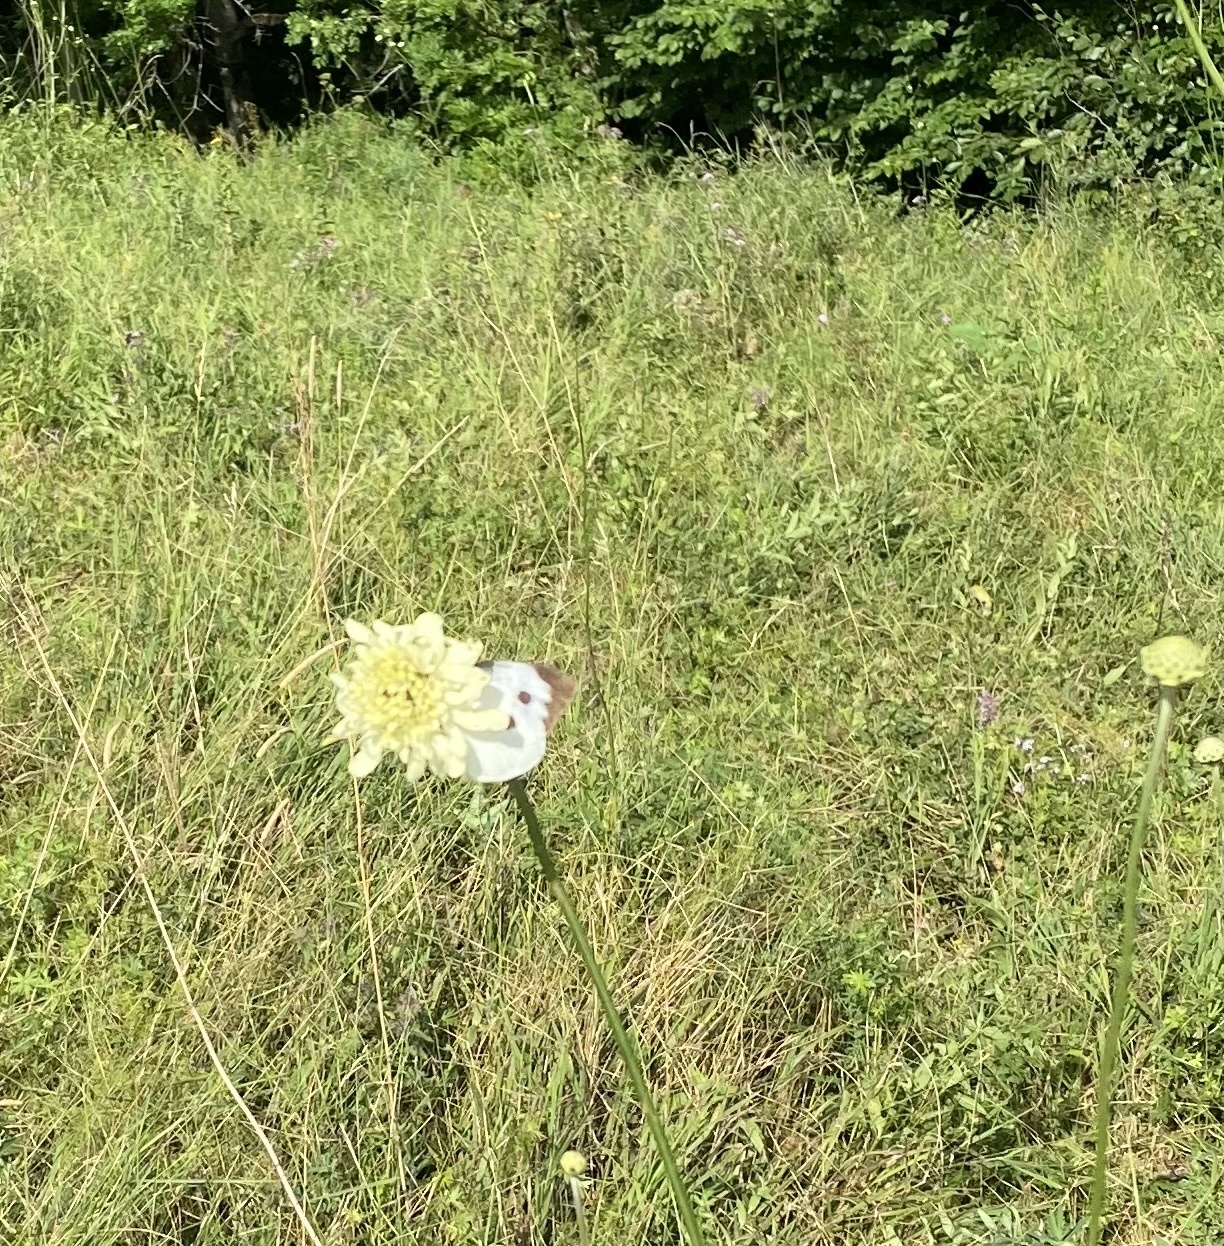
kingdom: Animalia
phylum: Arthropoda
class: Insecta
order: Lepidoptera
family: Pieridae
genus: Pieris
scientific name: Pieris brassicae
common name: Large white
